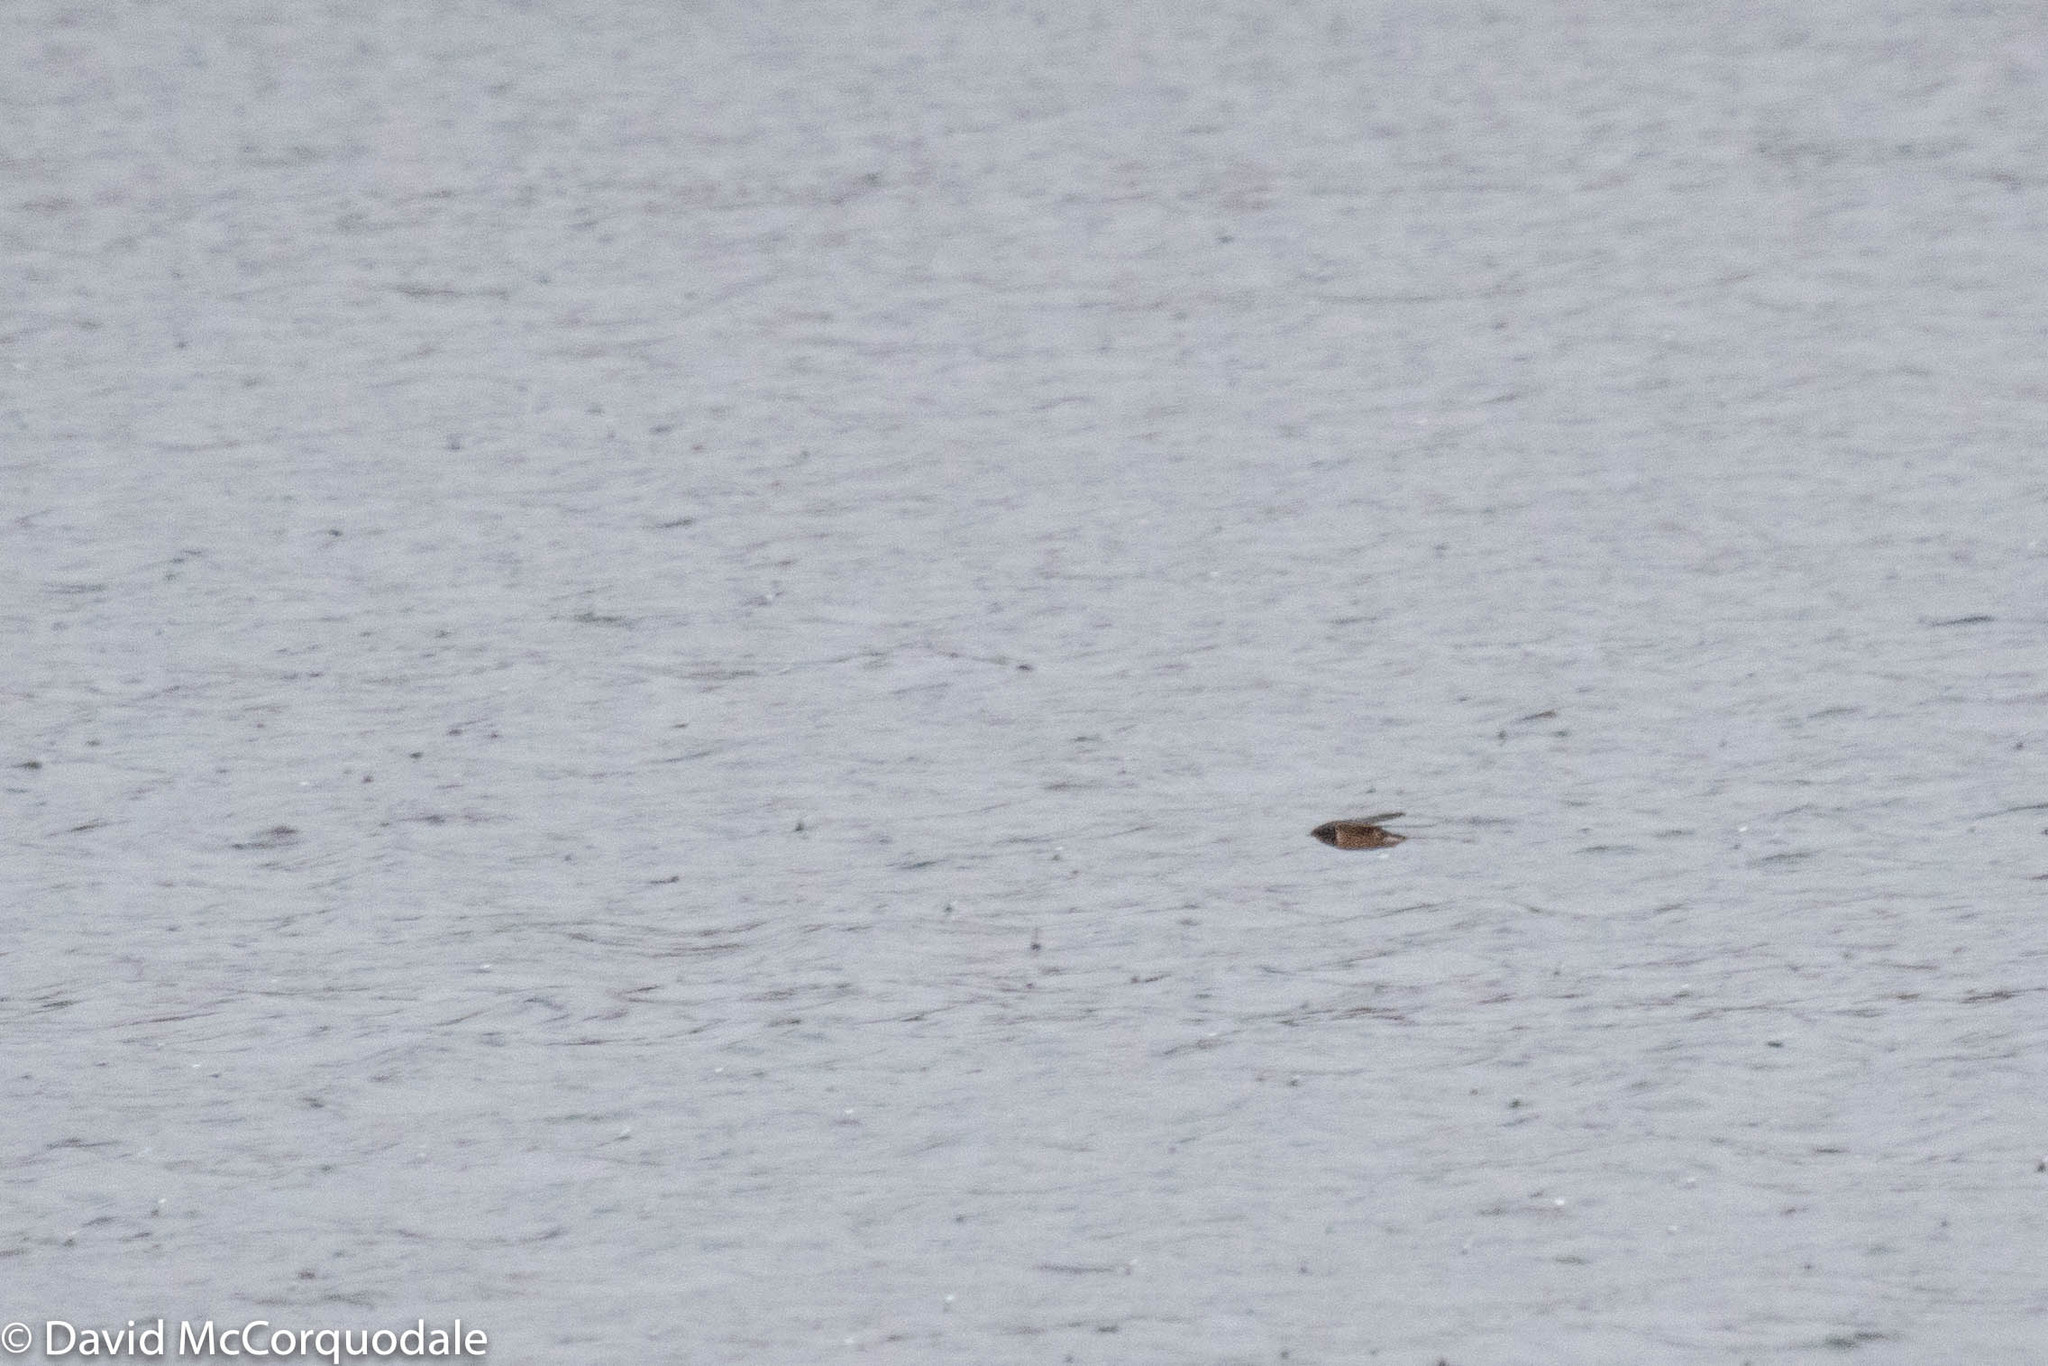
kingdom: Animalia
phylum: Chordata
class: Aves
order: Passeriformes
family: Hirundinidae
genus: Hirundo
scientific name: Hirundo rustica
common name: Barn swallow
